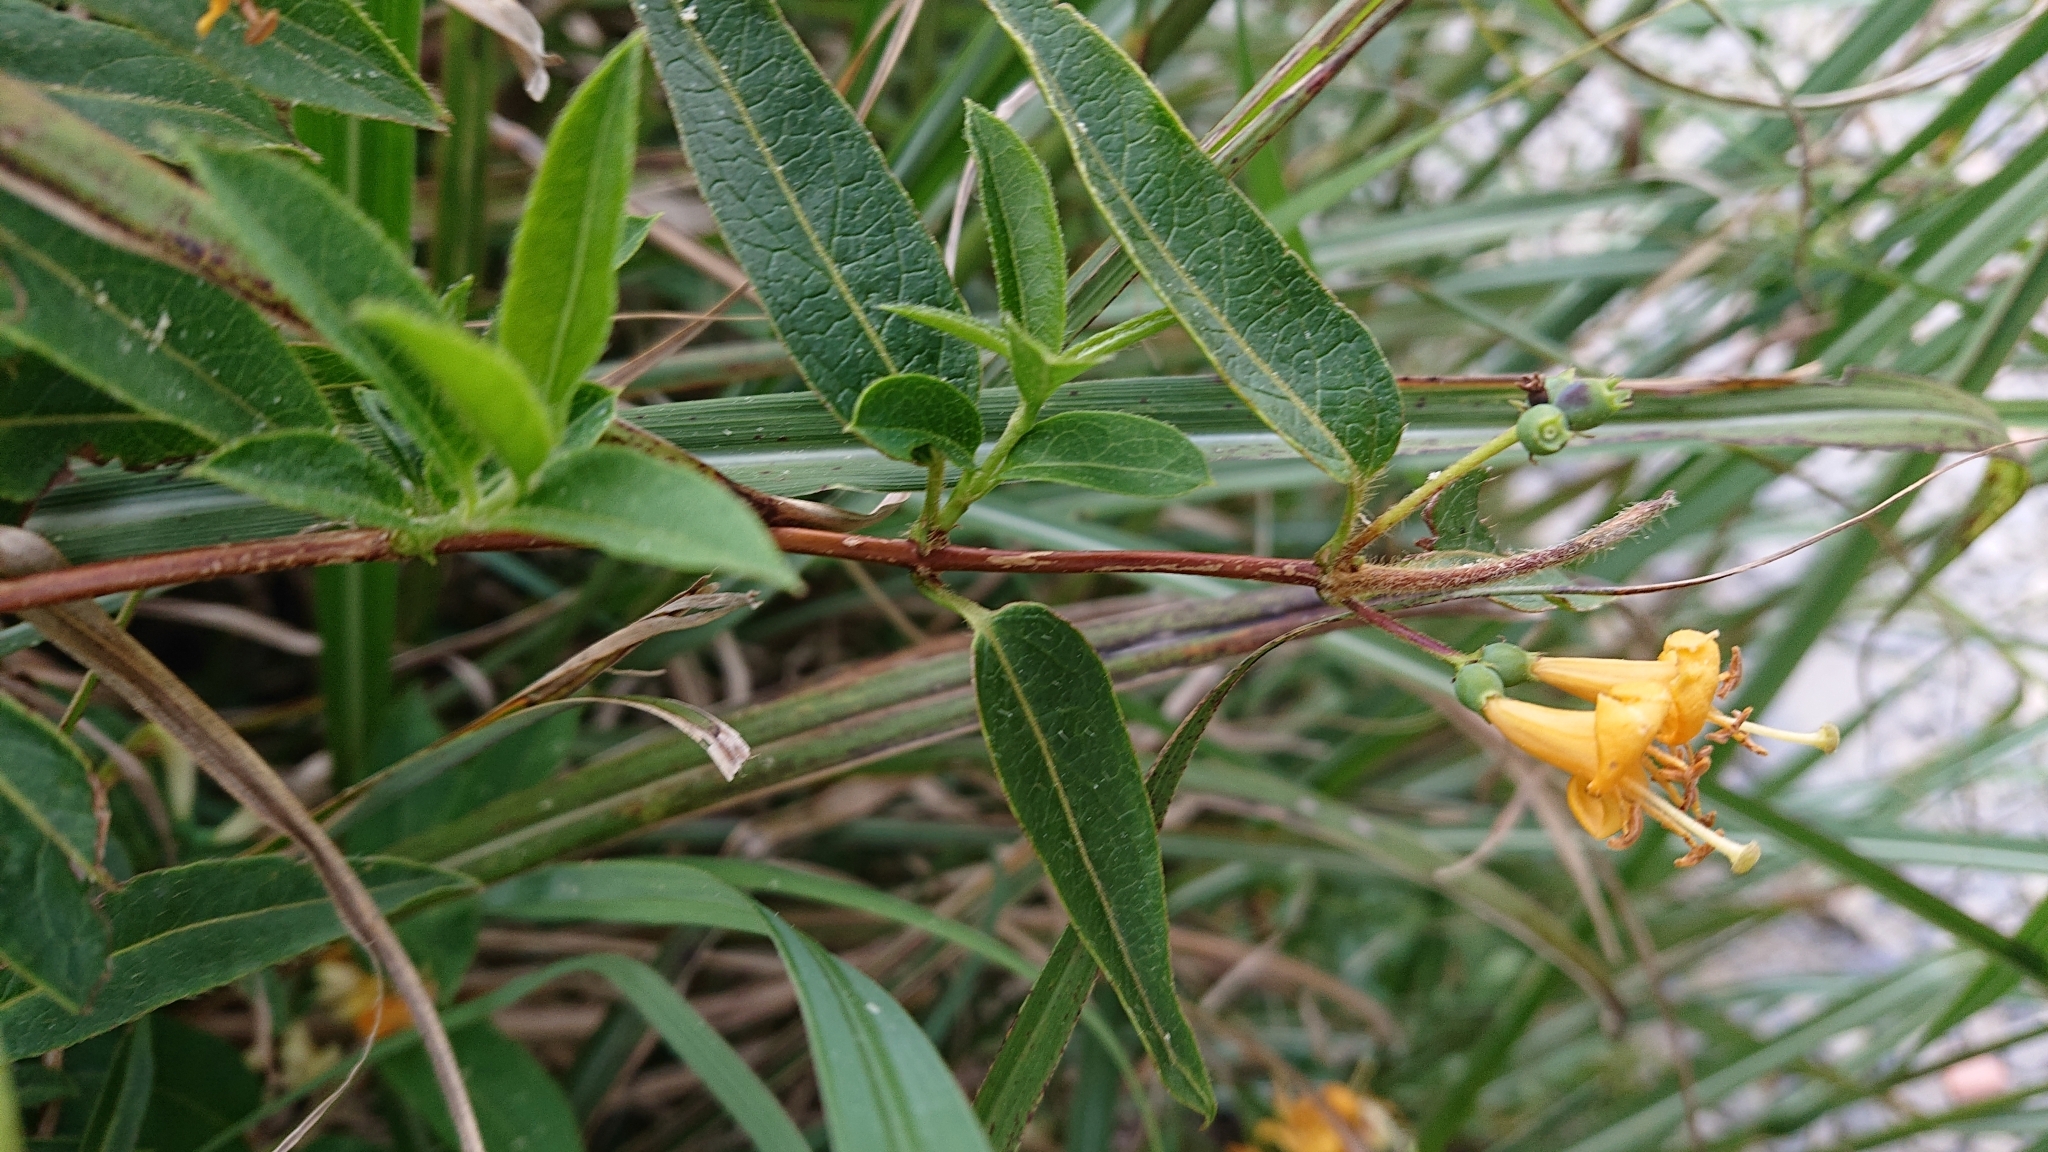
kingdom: Plantae
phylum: Tracheophyta
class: Magnoliopsida
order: Dipsacales
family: Caprifoliaceae
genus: Lonicera
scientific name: Lonicera acuminata
